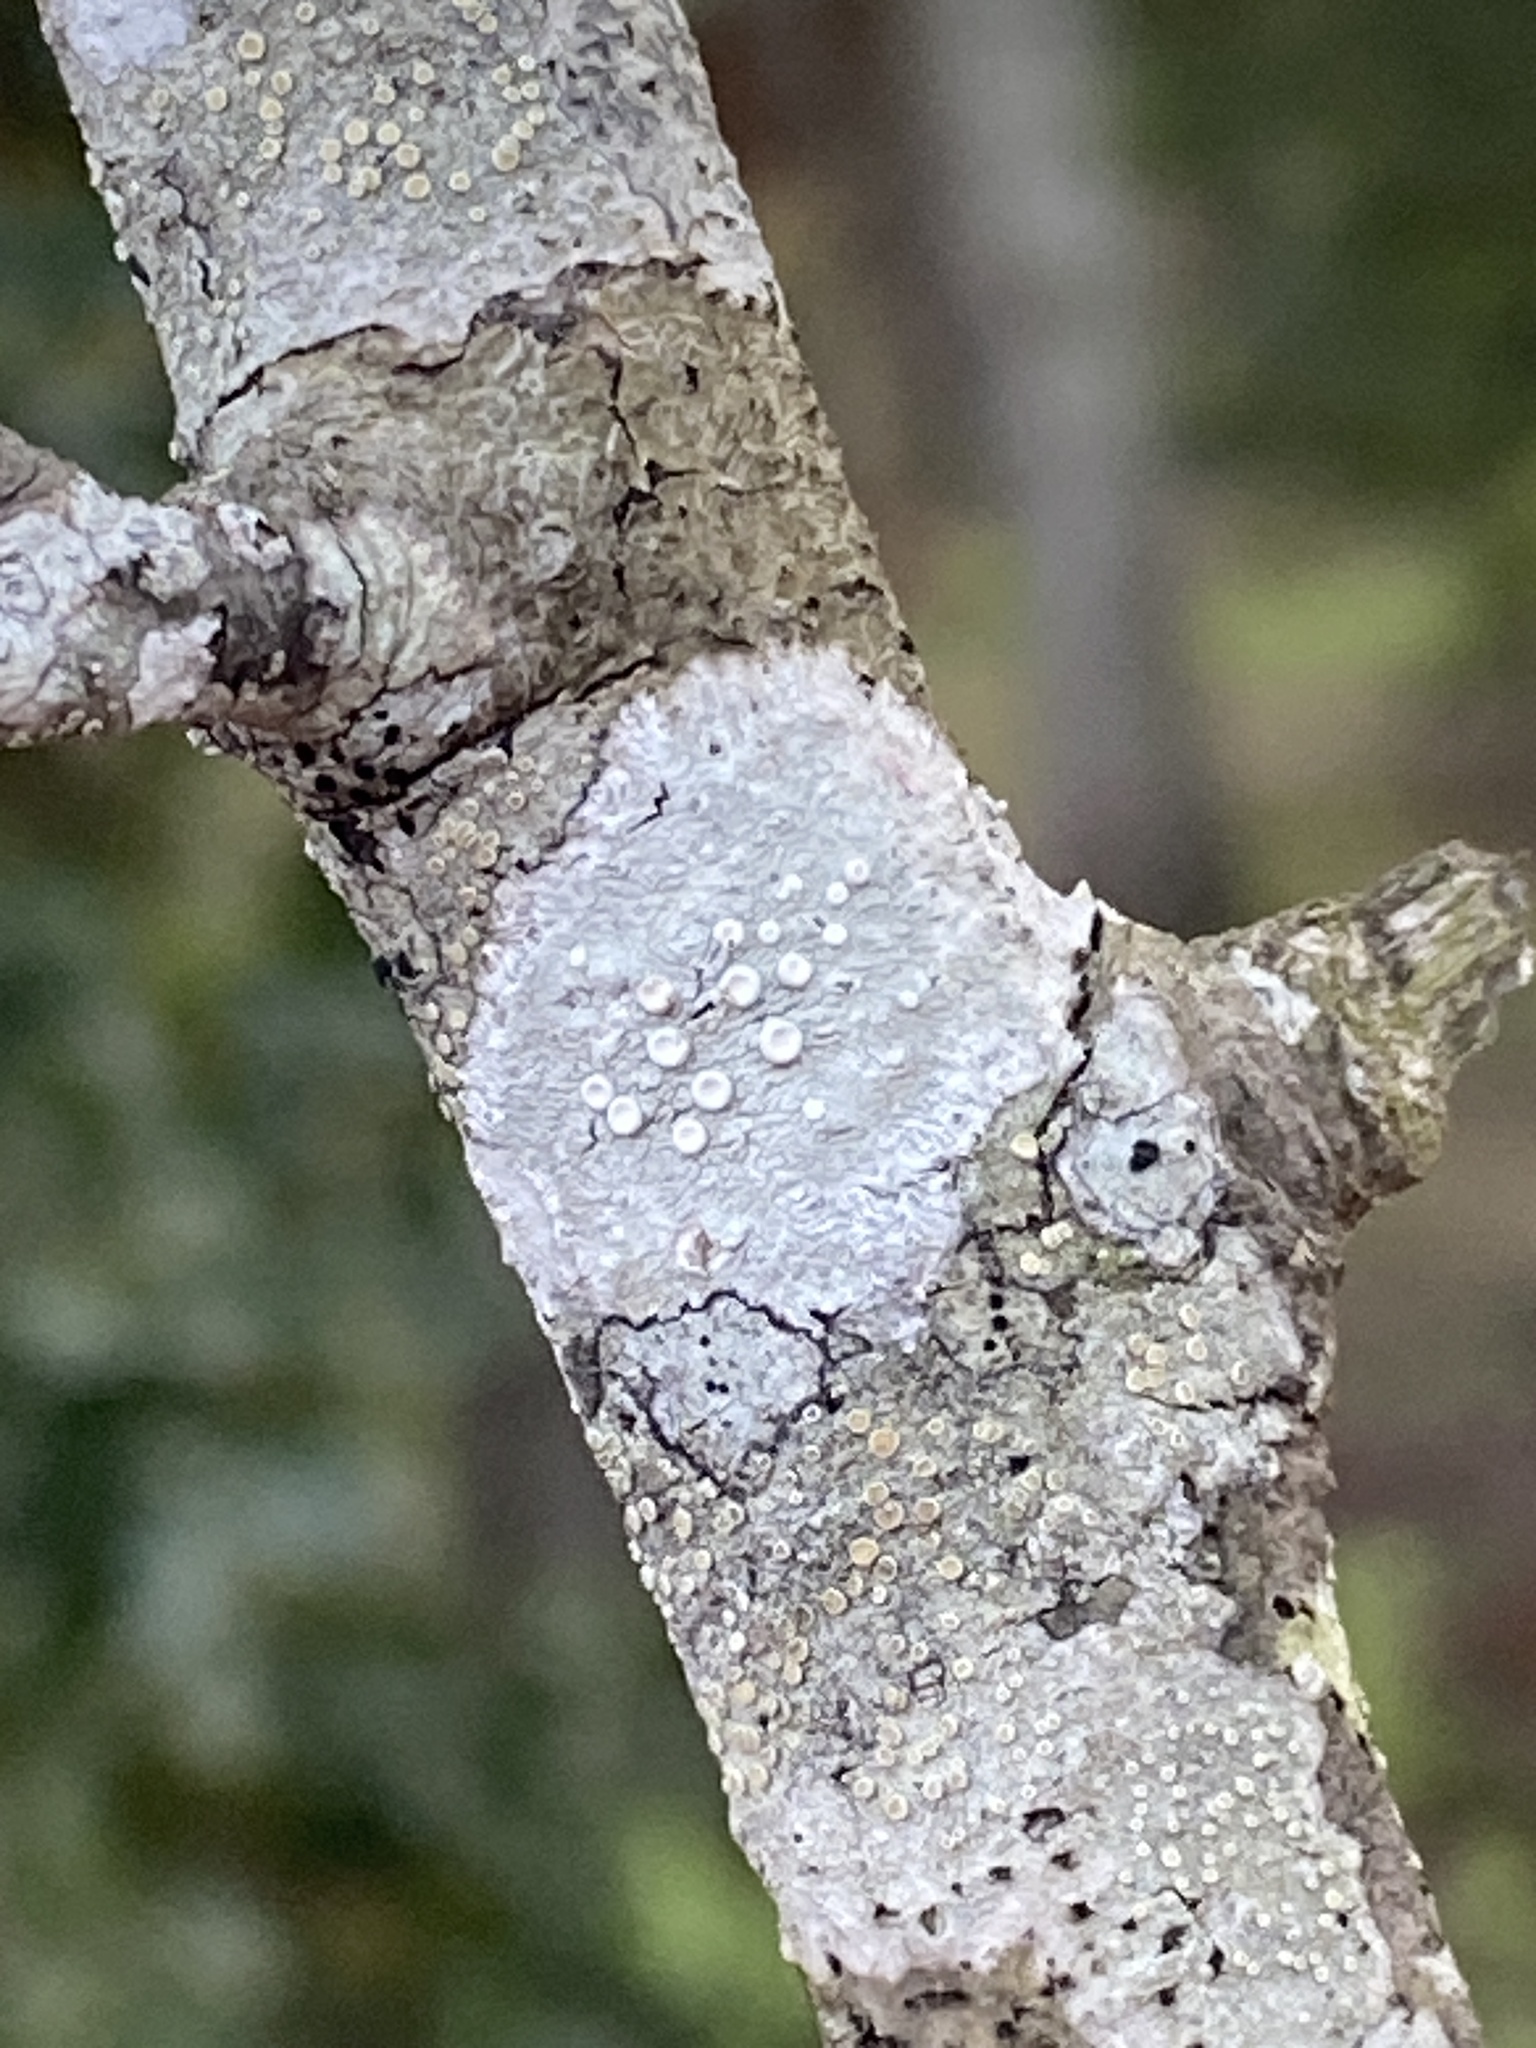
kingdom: Fungi
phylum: Ascomycota
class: Lecanoromycetes
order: Pertusariales
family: Ochrolechiaceae
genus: Ochrolechia
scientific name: Ochrolechia africana
